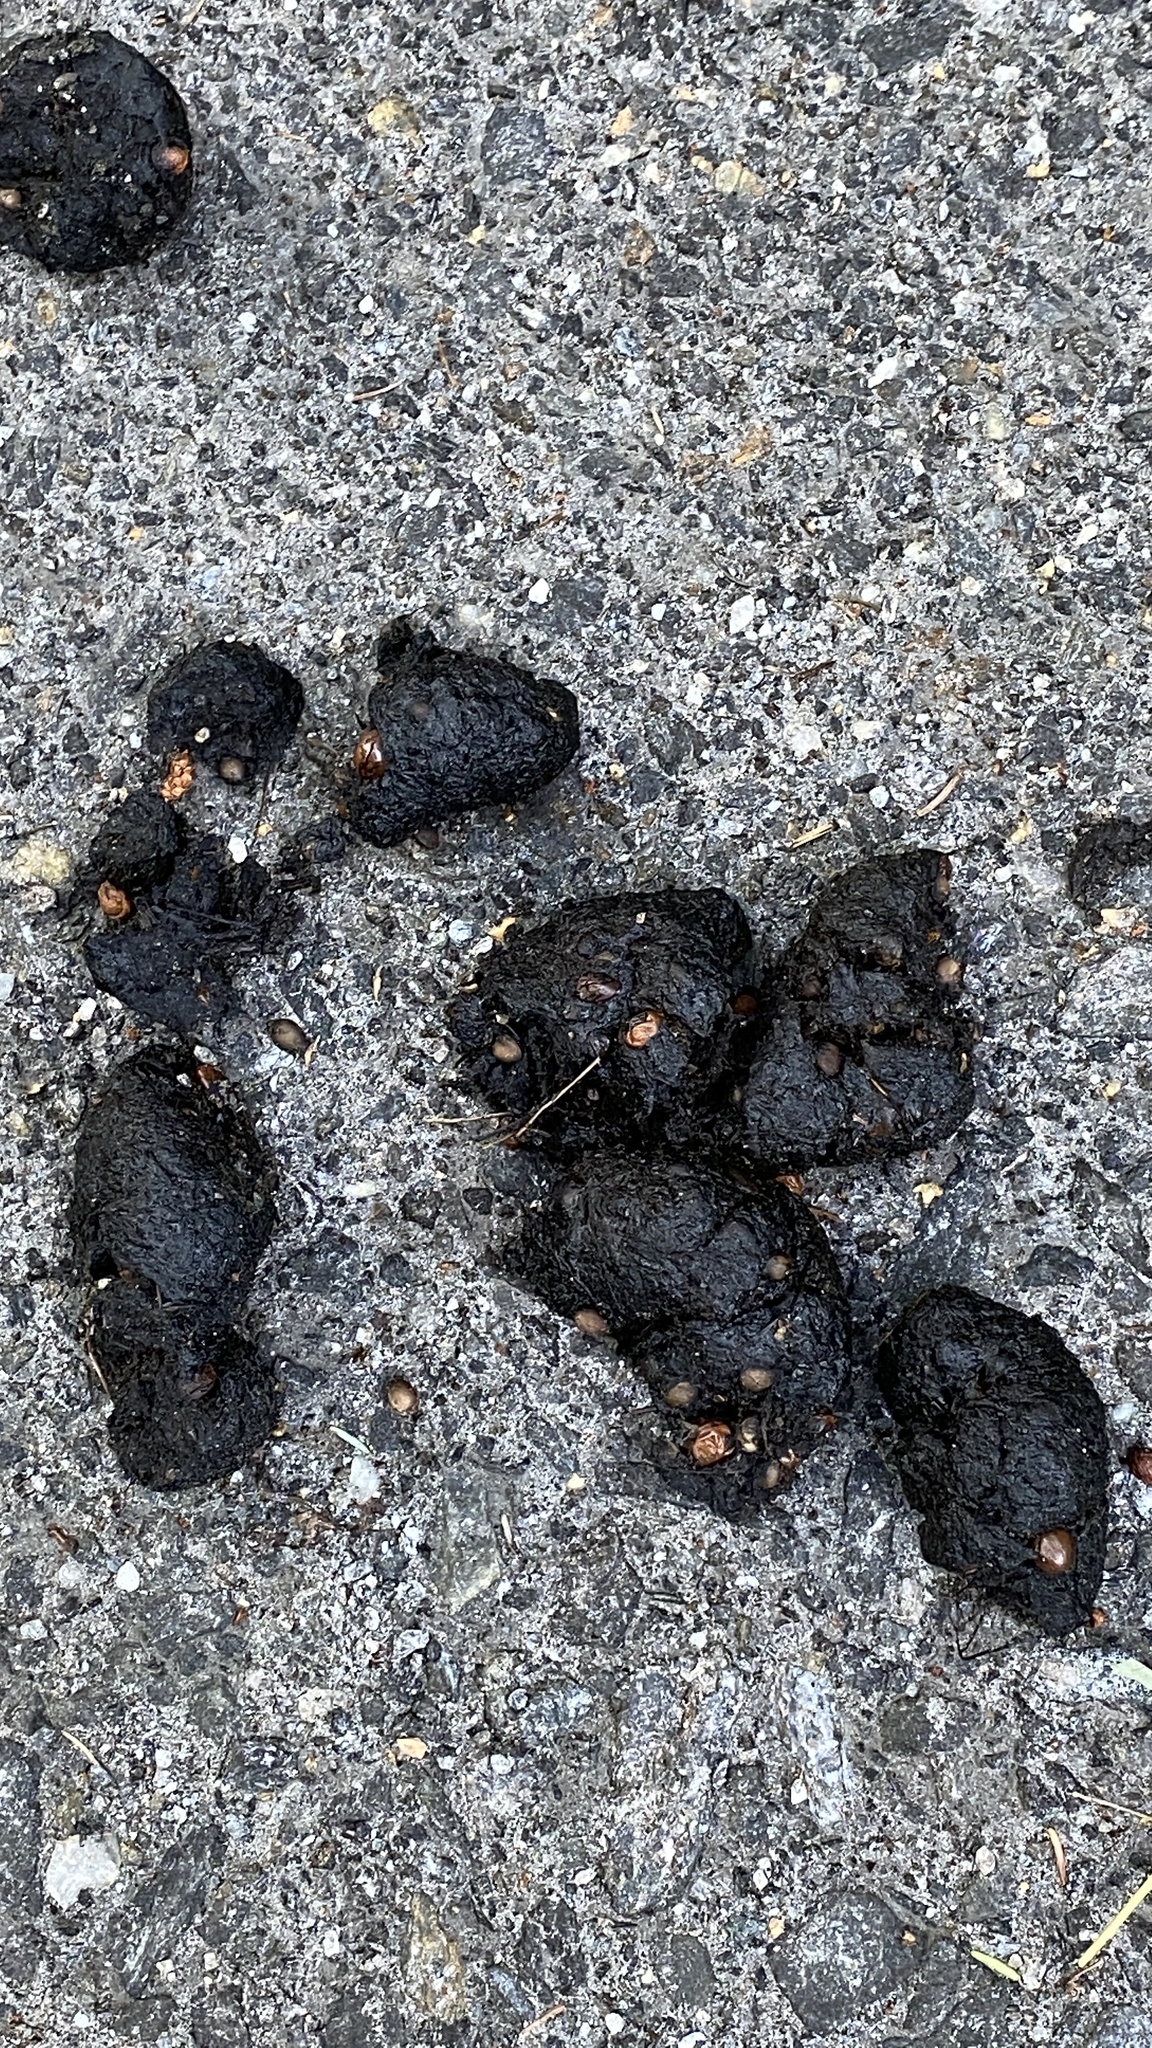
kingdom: Animalia
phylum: Chordata
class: Mammalia
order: Carnivora
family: Ursidae
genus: Ursus
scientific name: Ursus americanus
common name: American black bear
